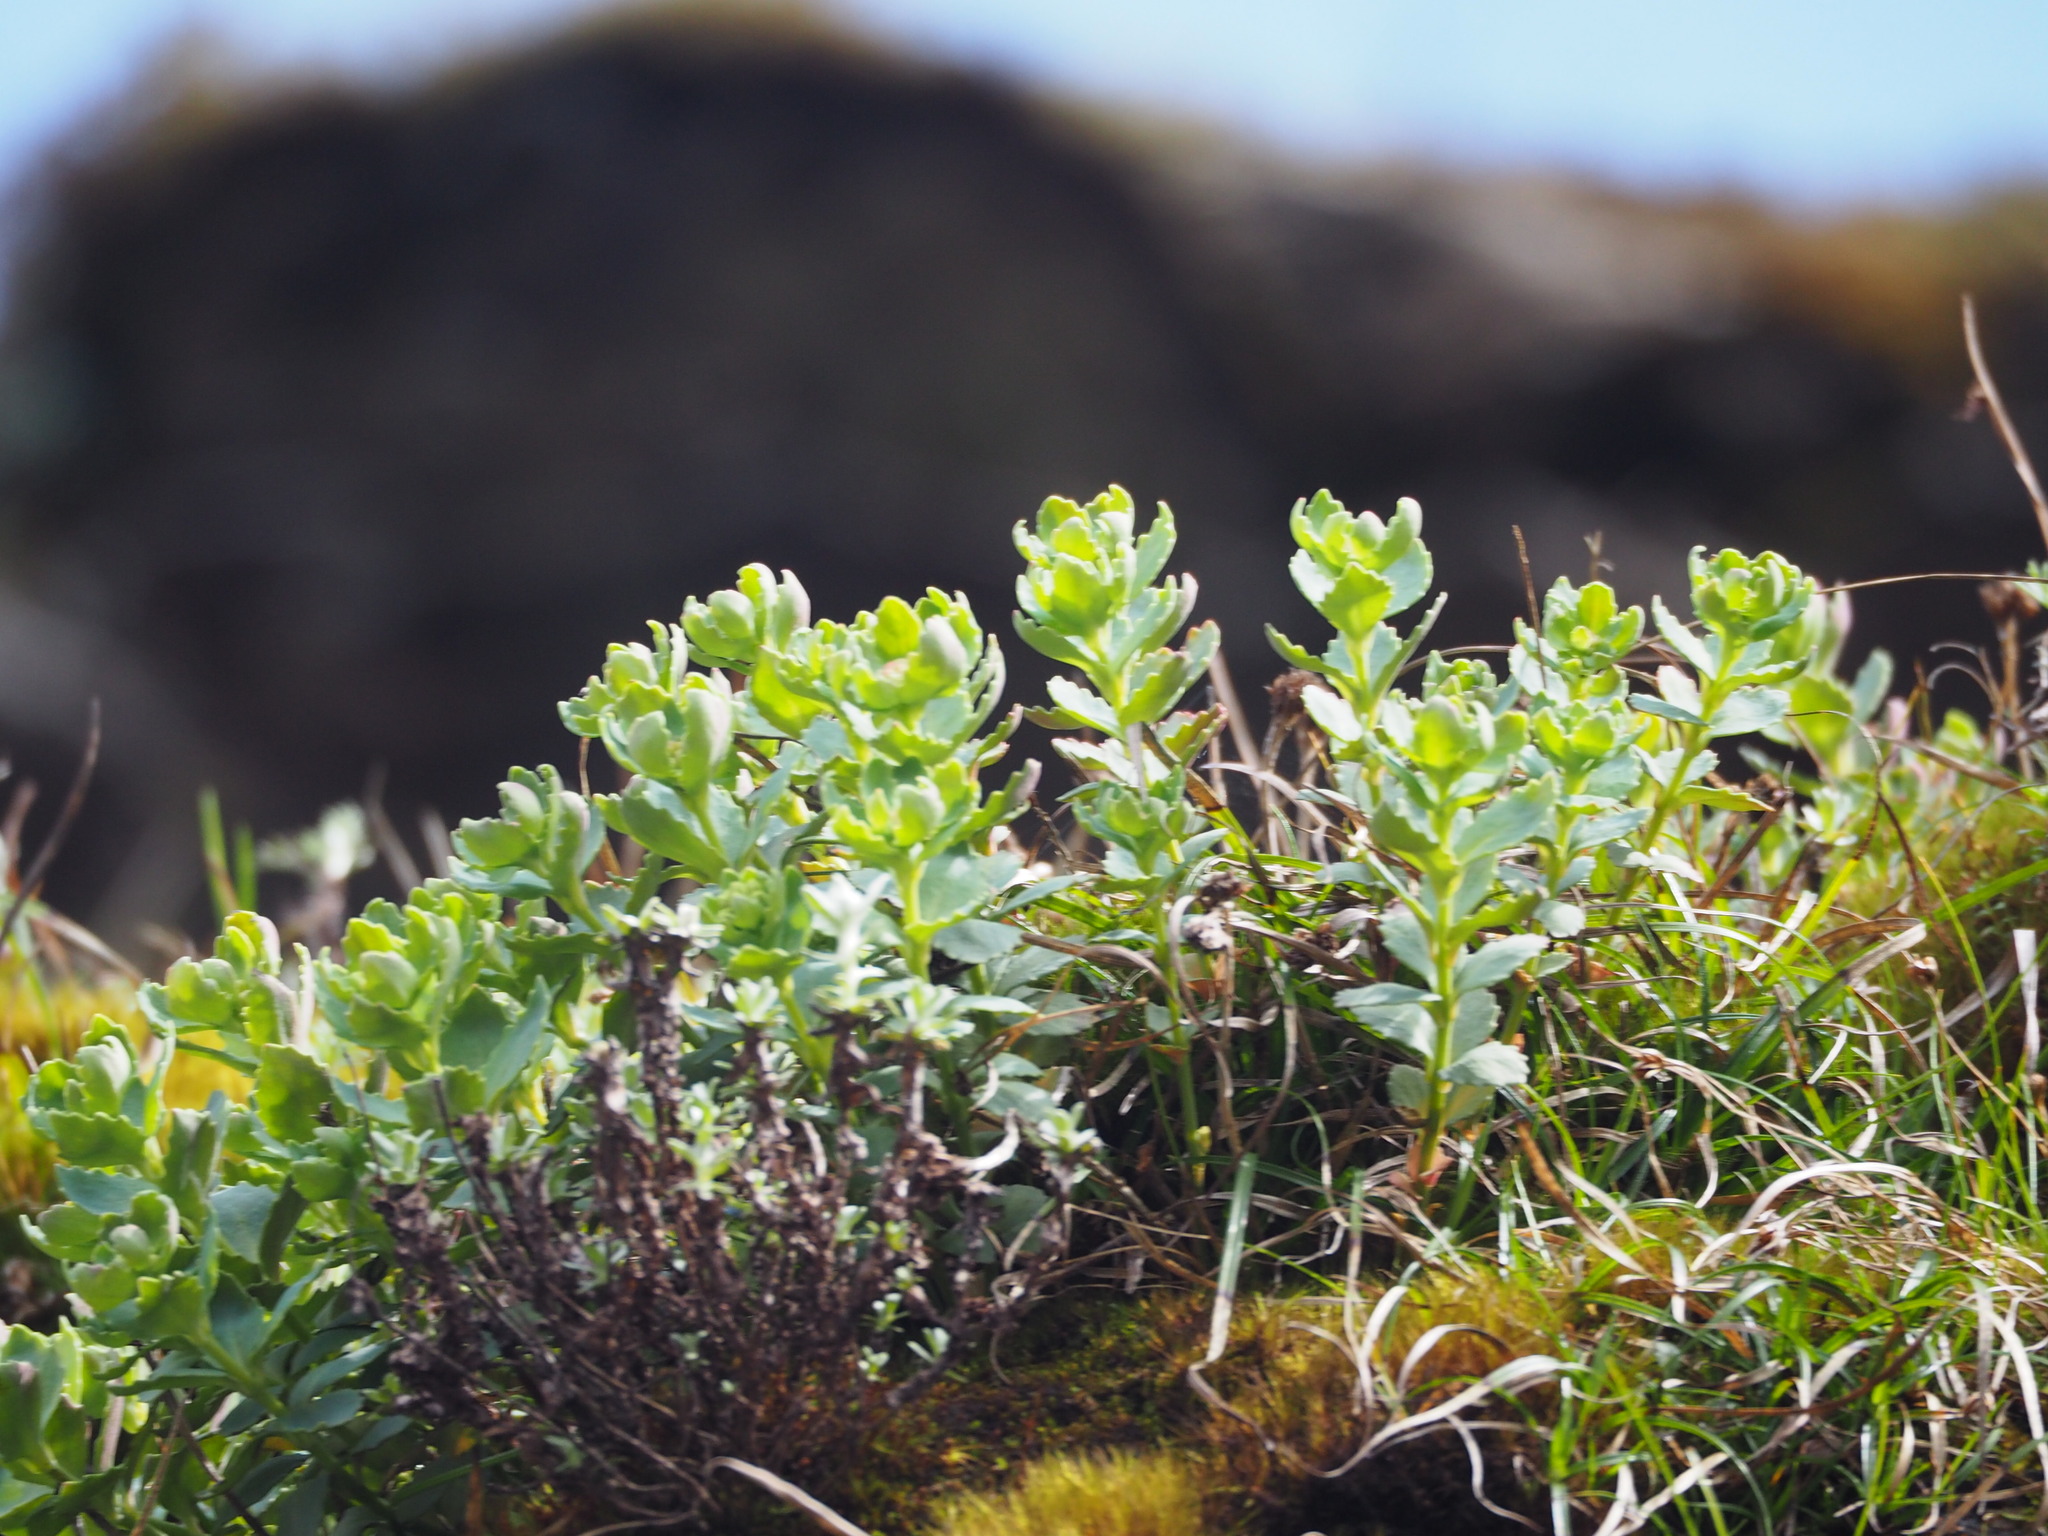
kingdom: Plantae
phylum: Tracheophyta
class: Magnoliopsida
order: Saxifragales
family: Crassulaceae
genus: Phedimus
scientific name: Phedimus subcapitatus
